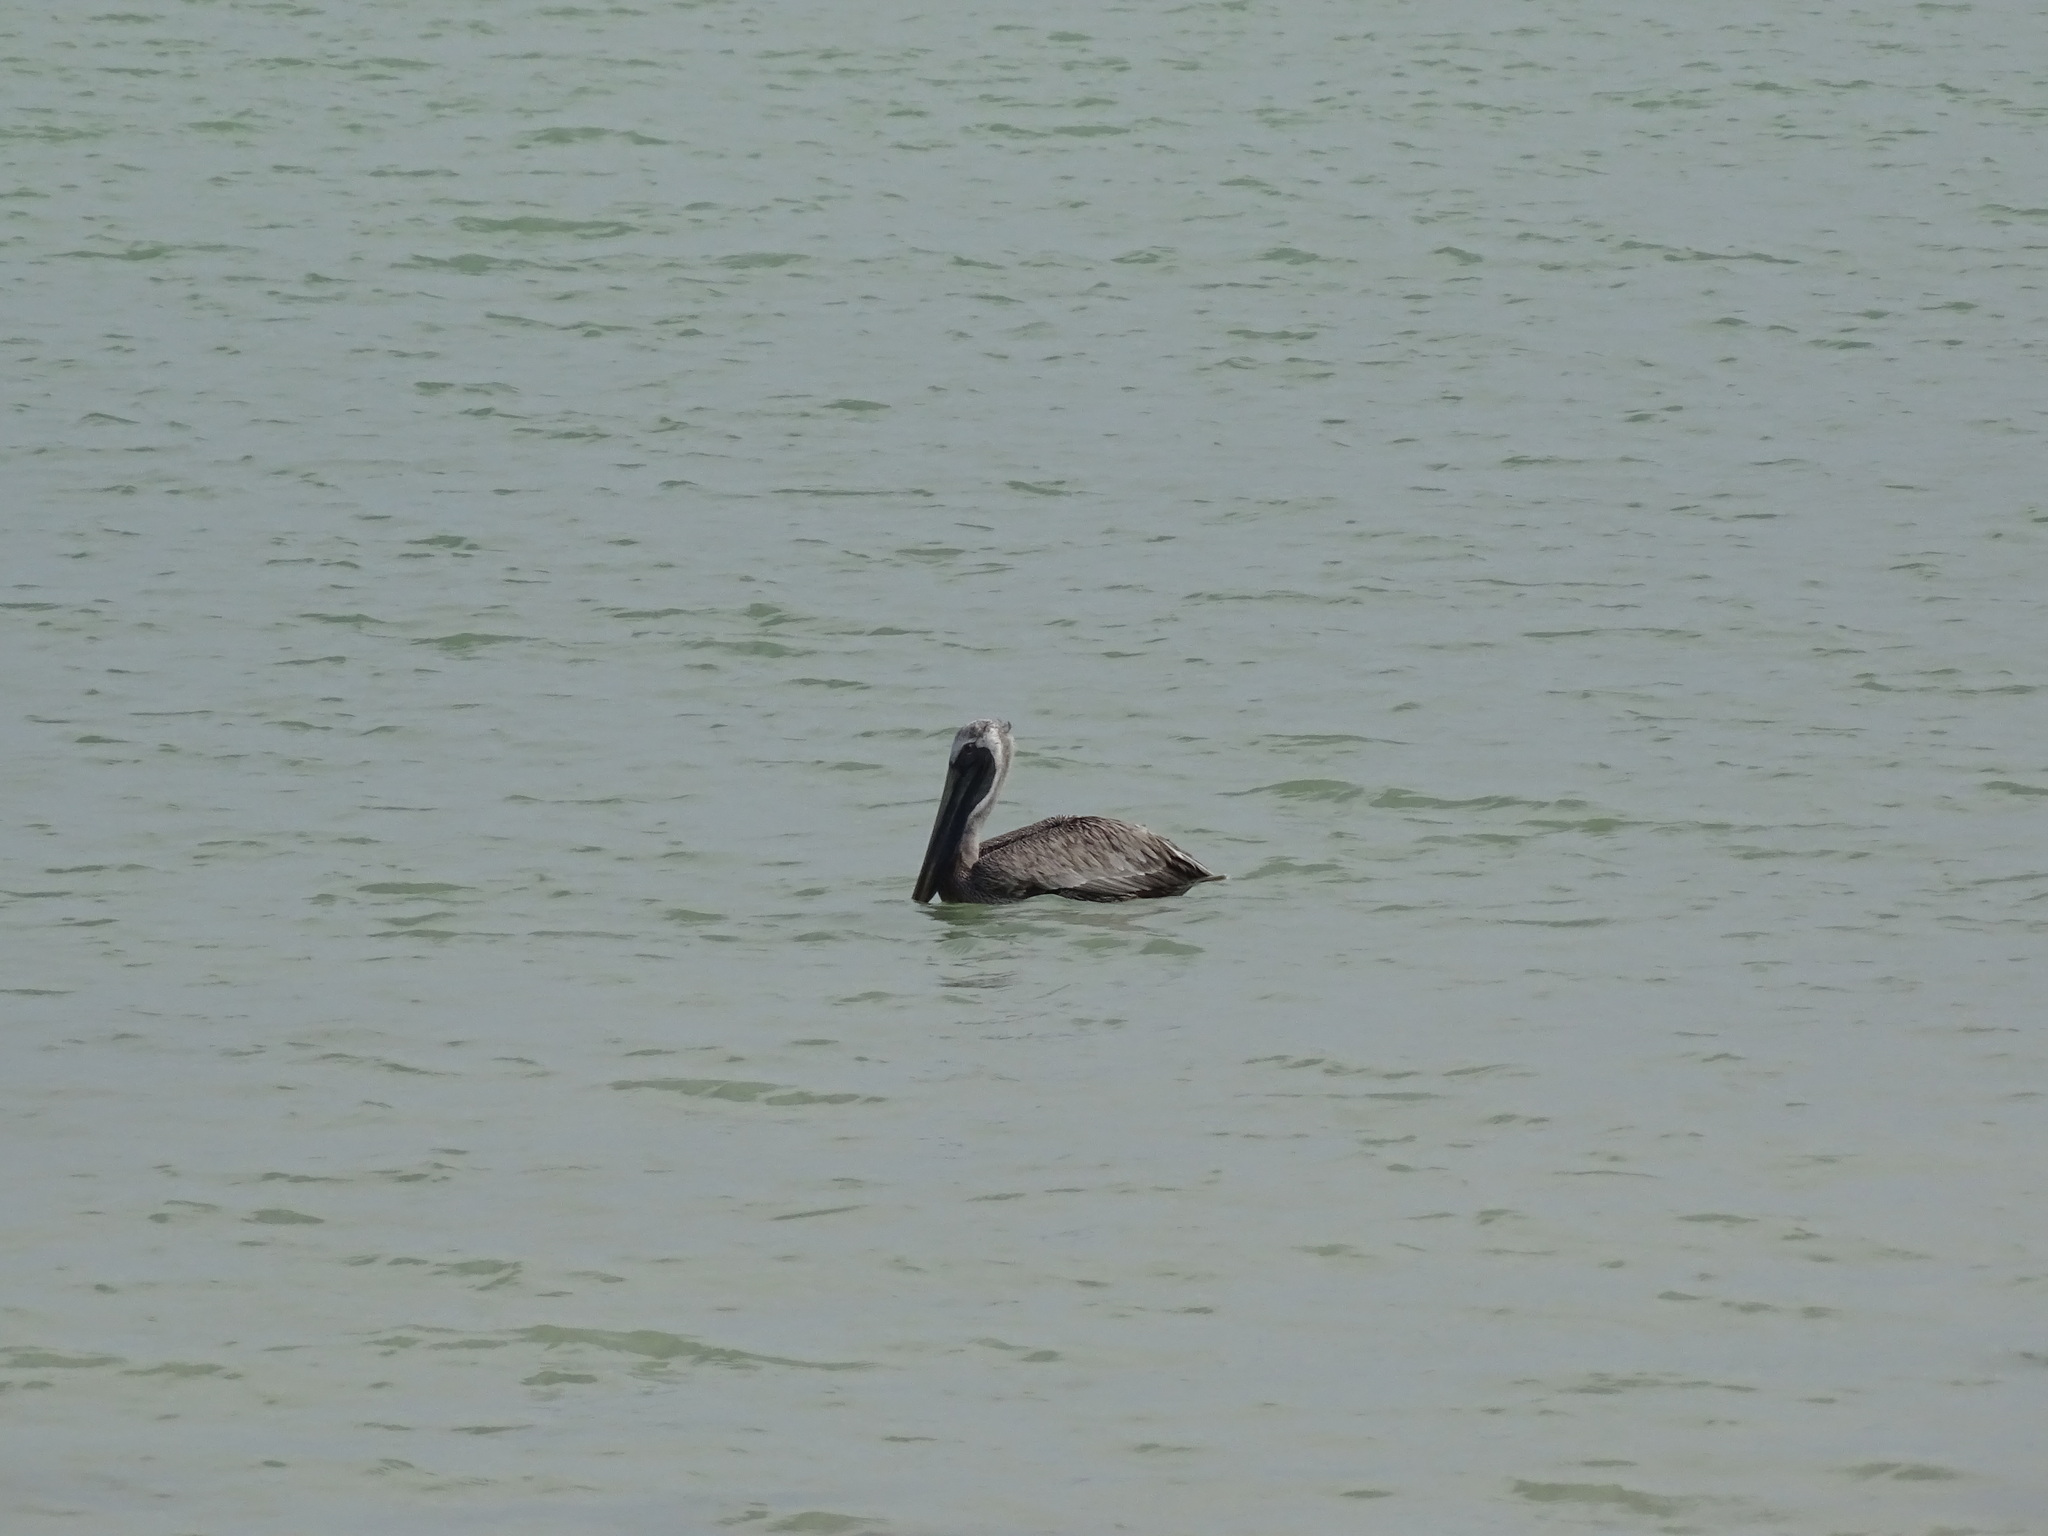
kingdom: Animalia
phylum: Chordata
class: Aves
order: Pelecaniformes
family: Pelecanidae
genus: Pelecanus
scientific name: Pelecanus occidentalis
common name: Brown pelican
